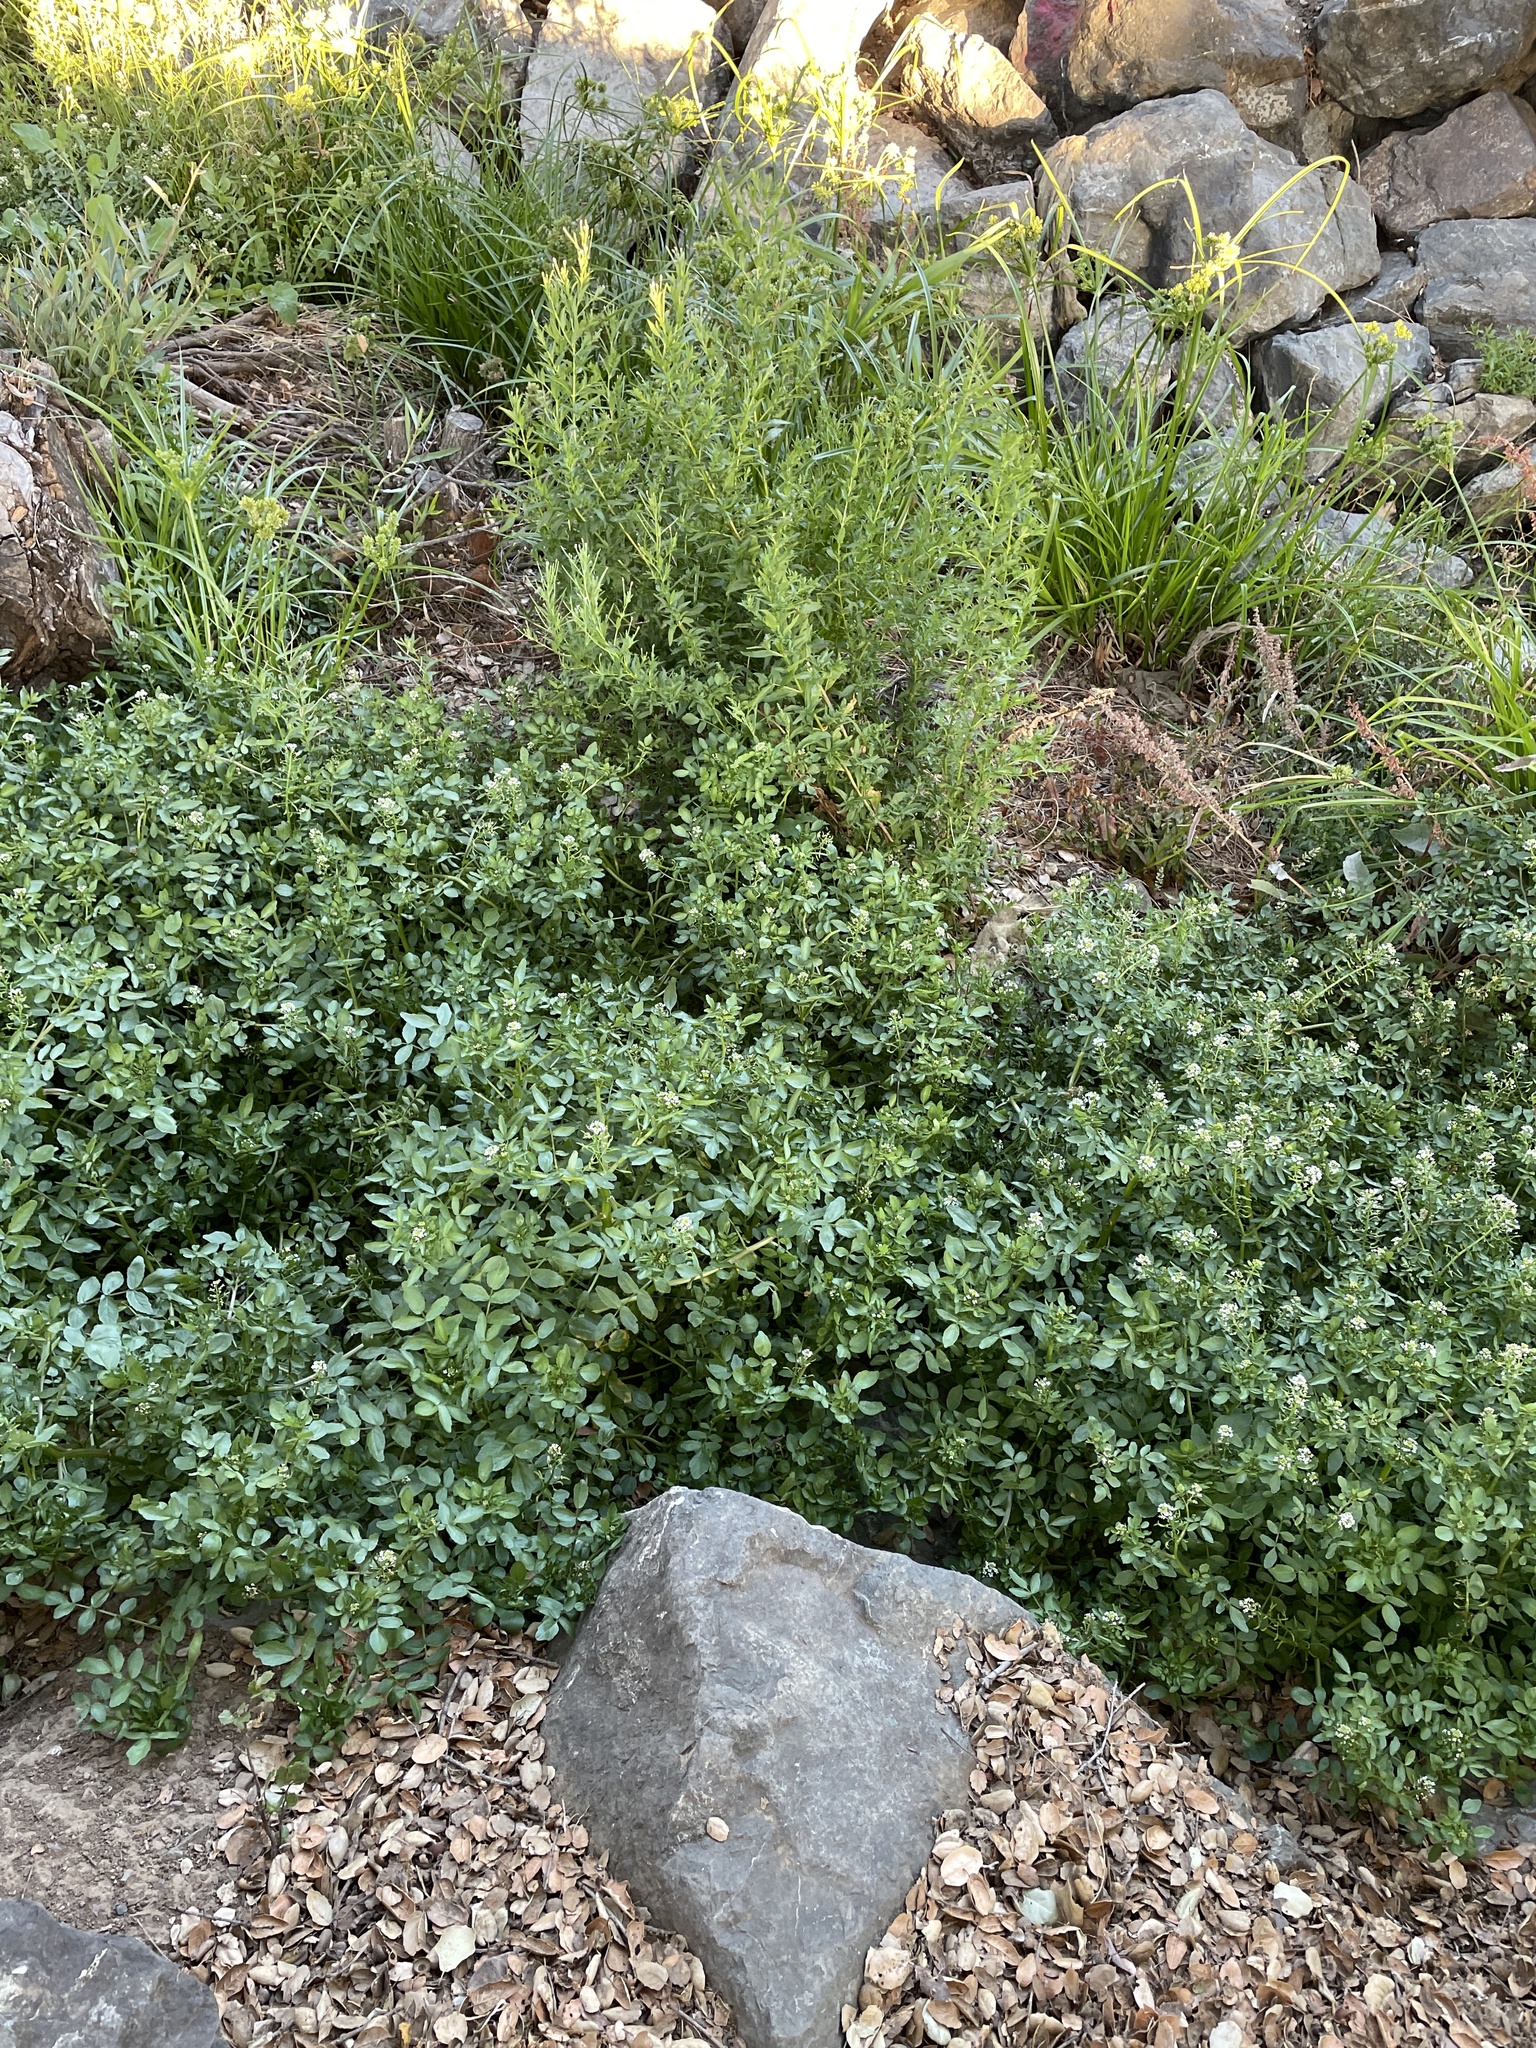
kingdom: Plantae
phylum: Tracheophyta
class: Magnoliopsida
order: Brassicales
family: Brassicaceae
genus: Nasturtium
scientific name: Nasturtium officinale
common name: Watercress
